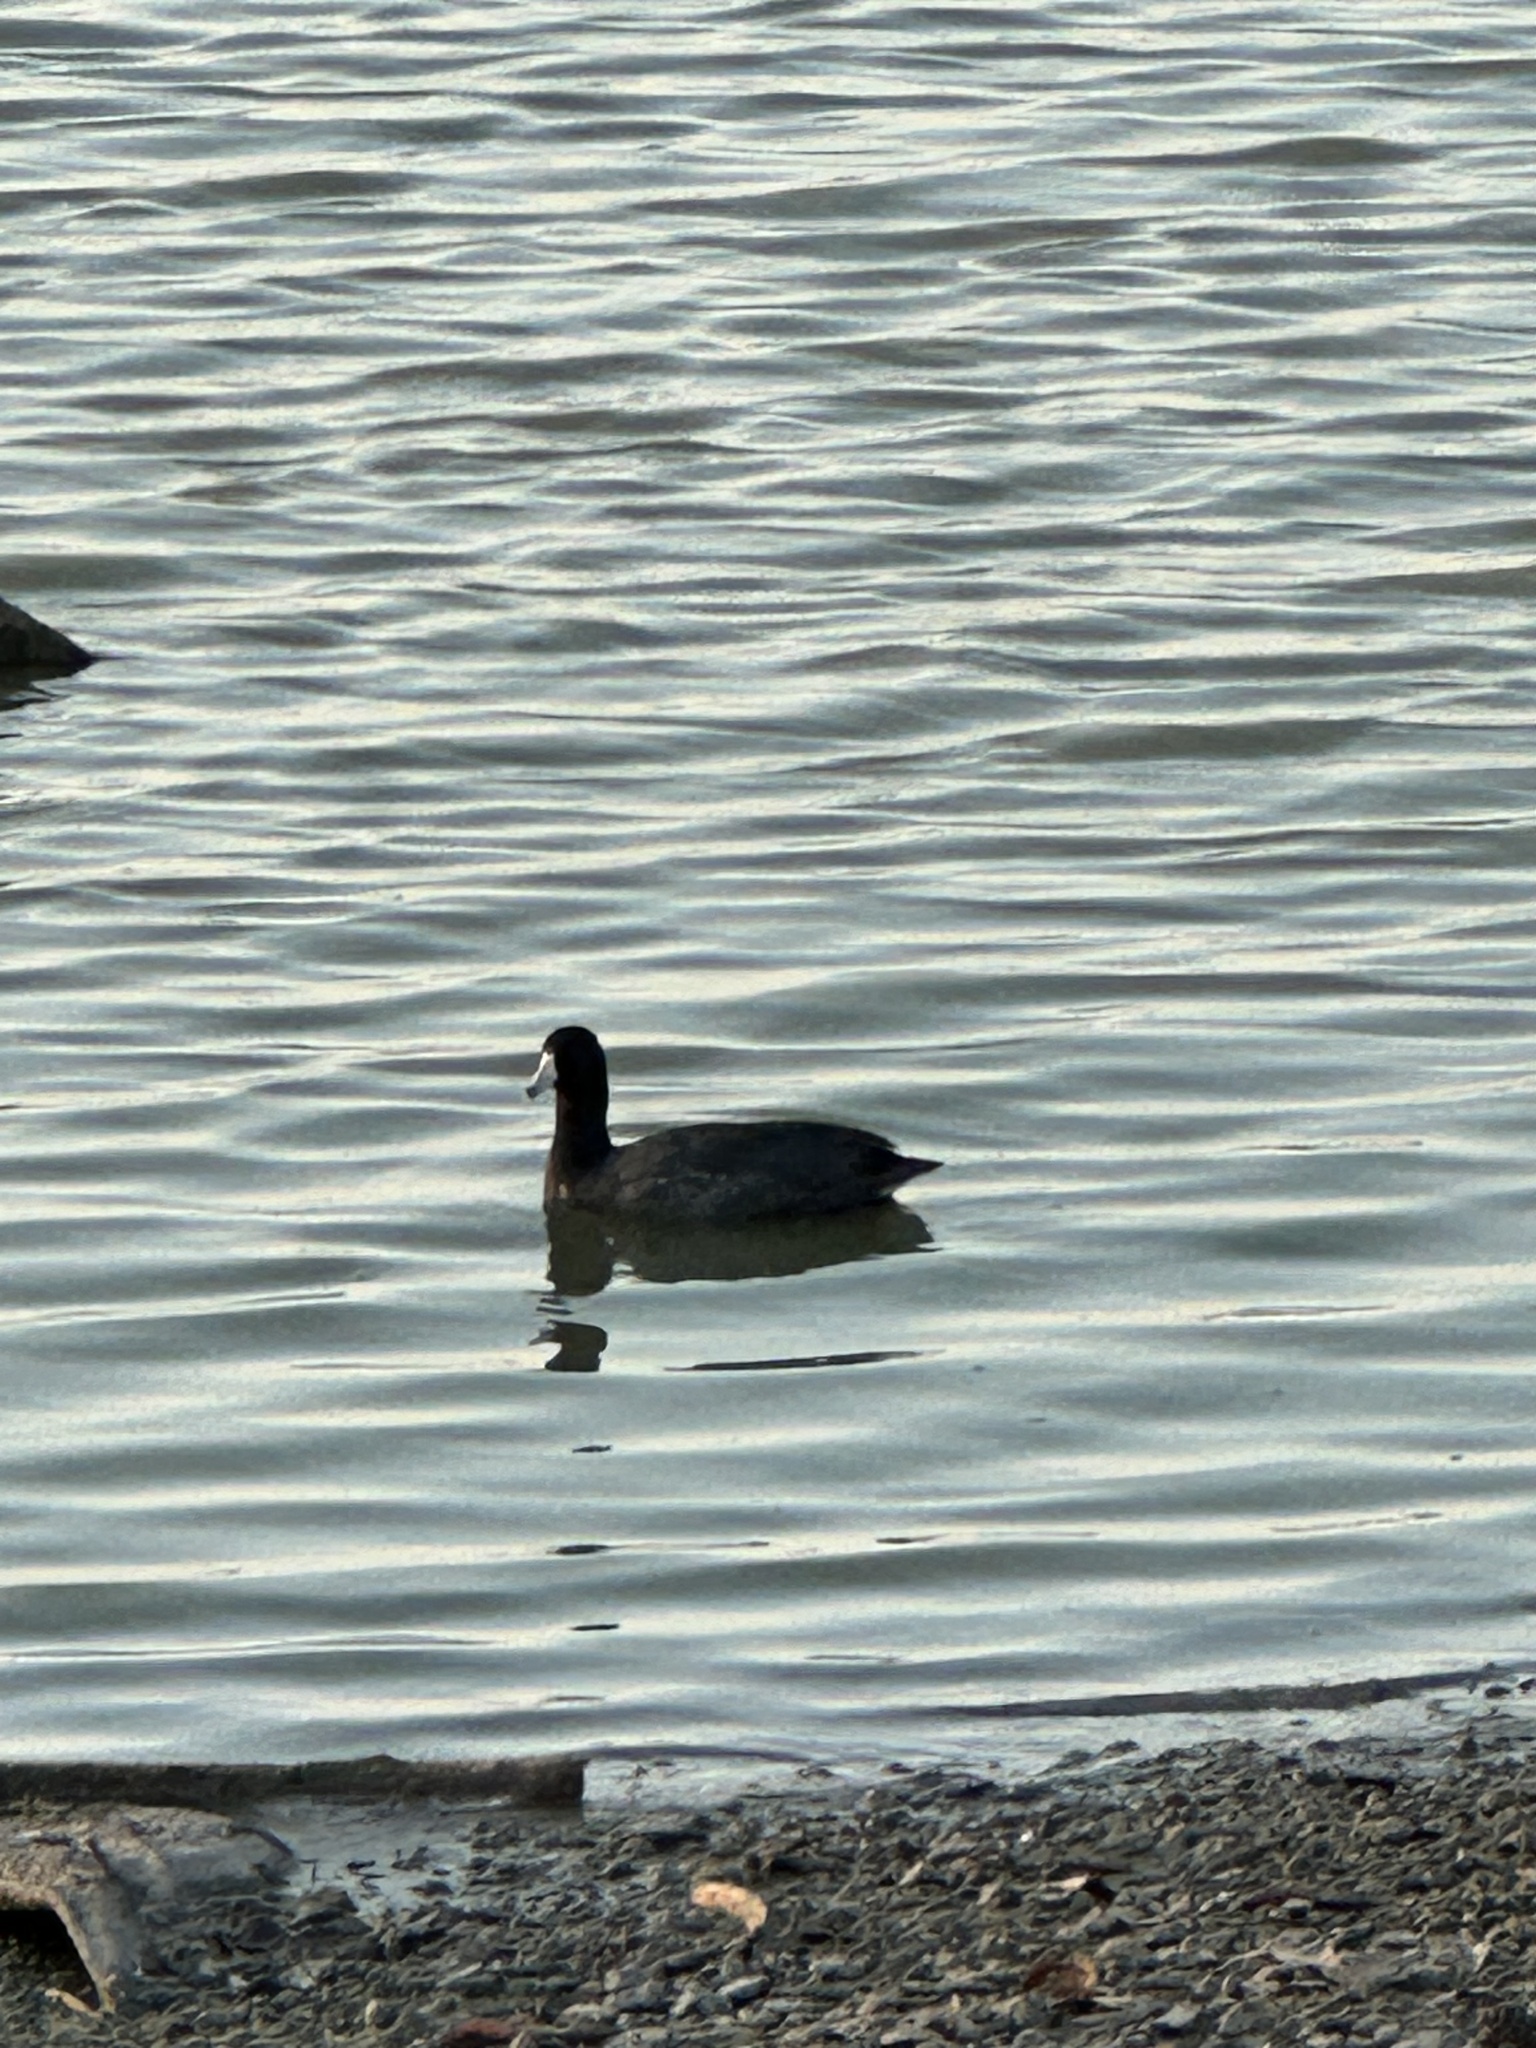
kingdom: Animalia
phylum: Chordata
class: Aves
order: Gruiformes
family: Rallidae
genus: Fulica
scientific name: Fulica americana
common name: American coot
